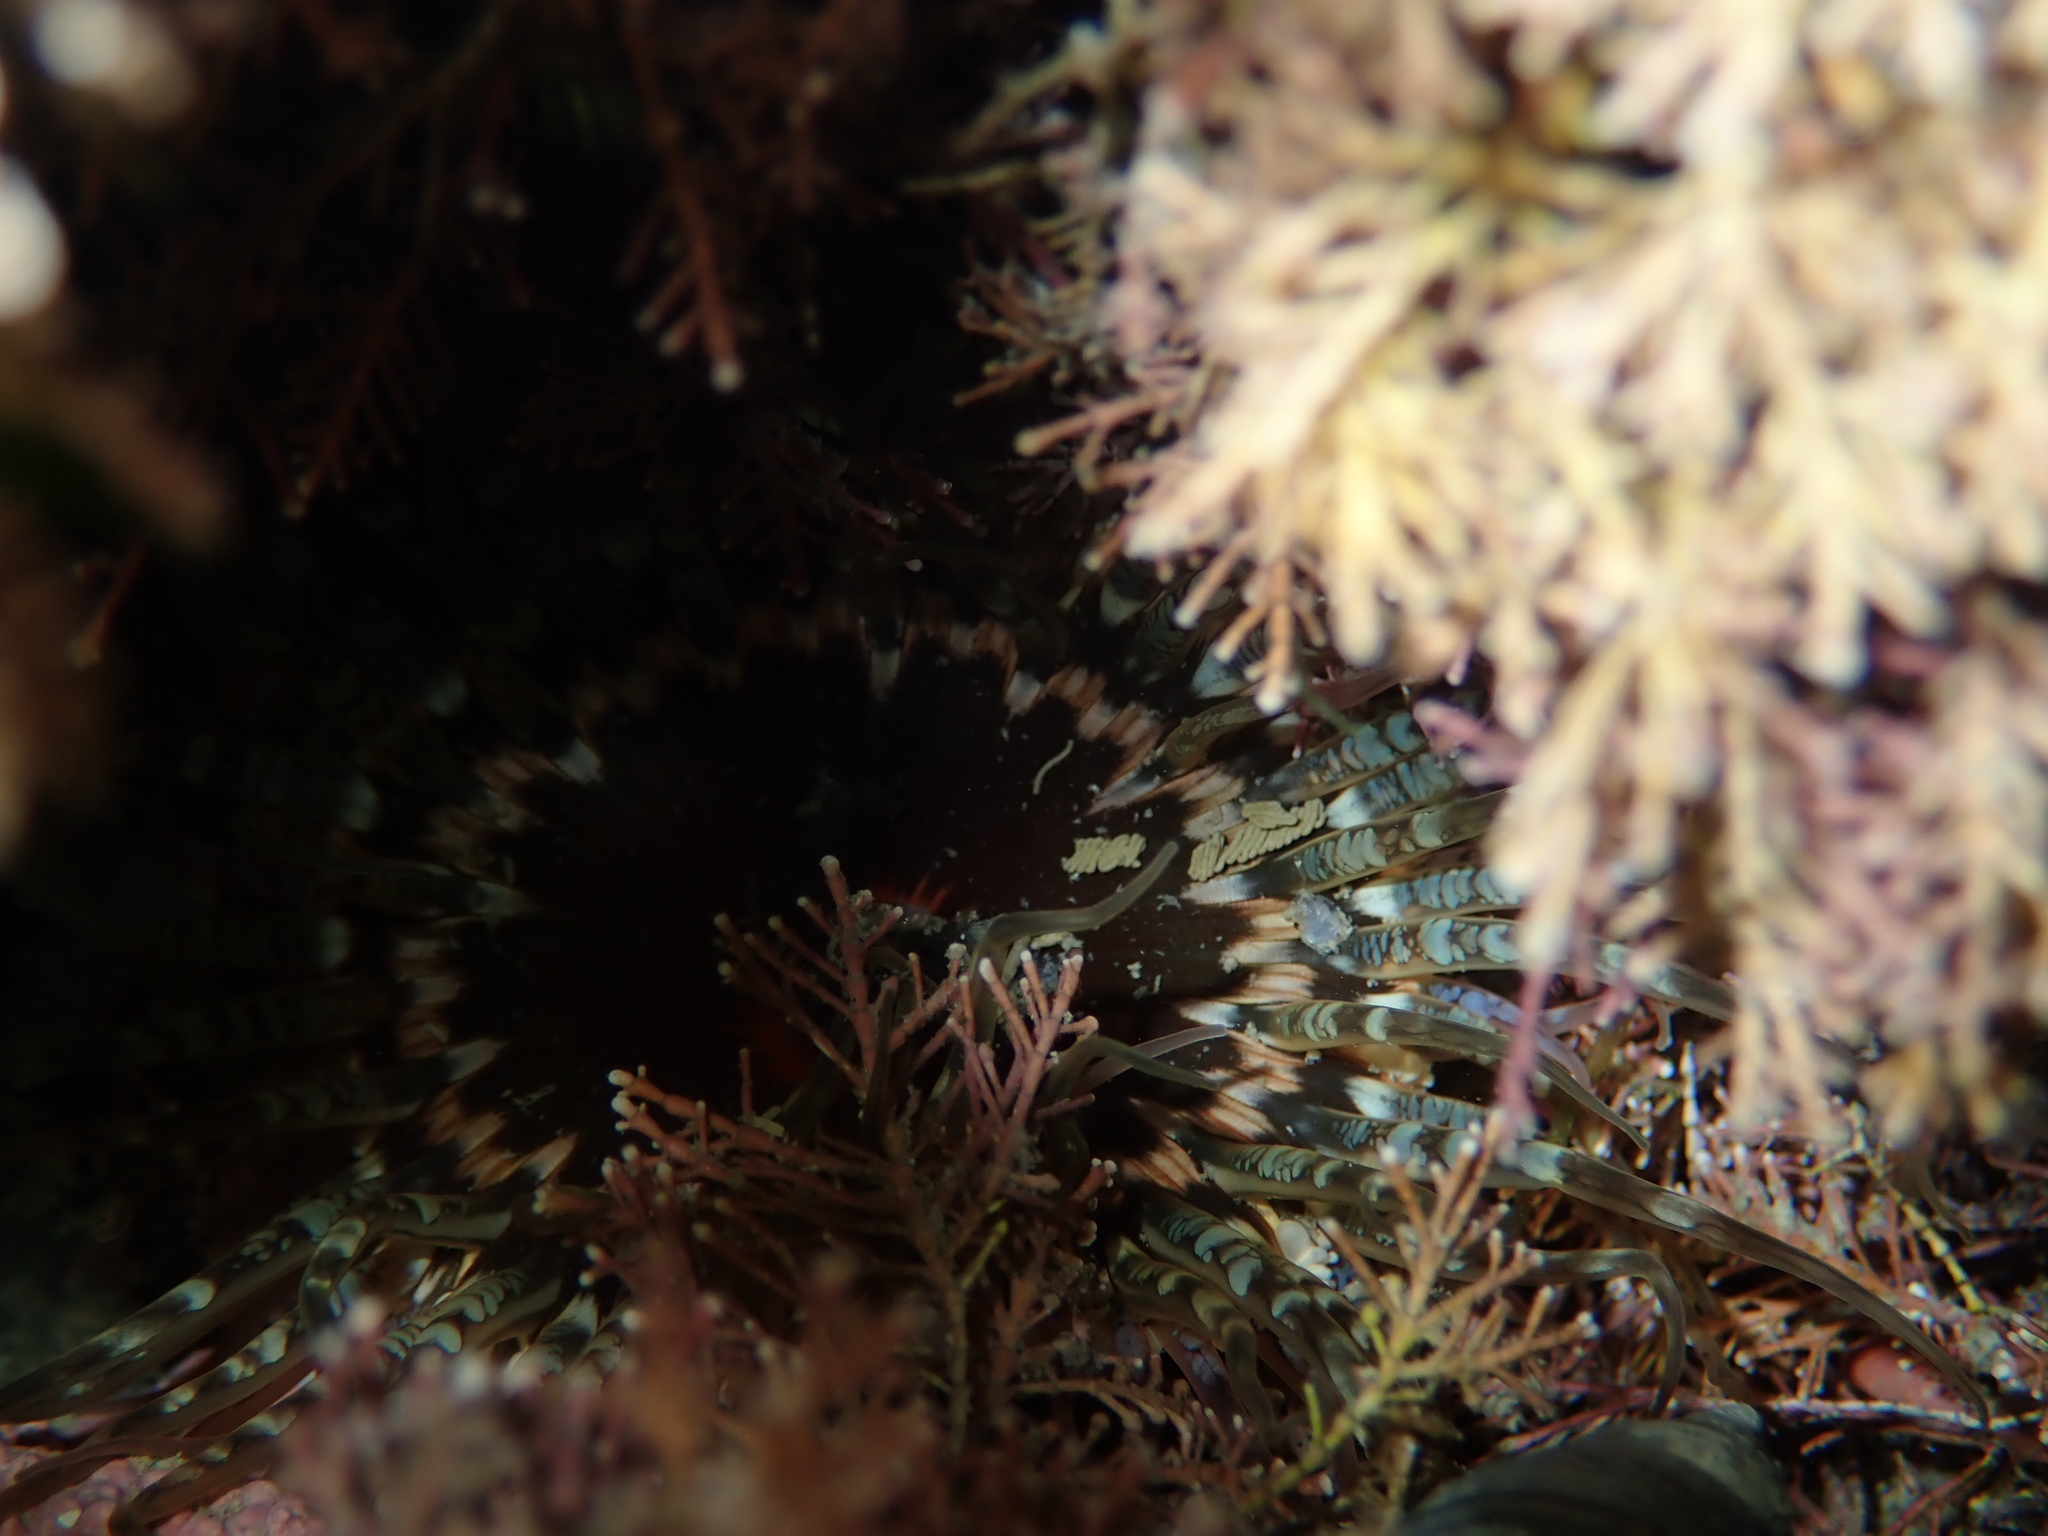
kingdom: Animalia
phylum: Cnidaria
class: Anthozoa
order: Actiniaria
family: Actiniidae
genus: Oulactis
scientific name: Oulactis muscosa
